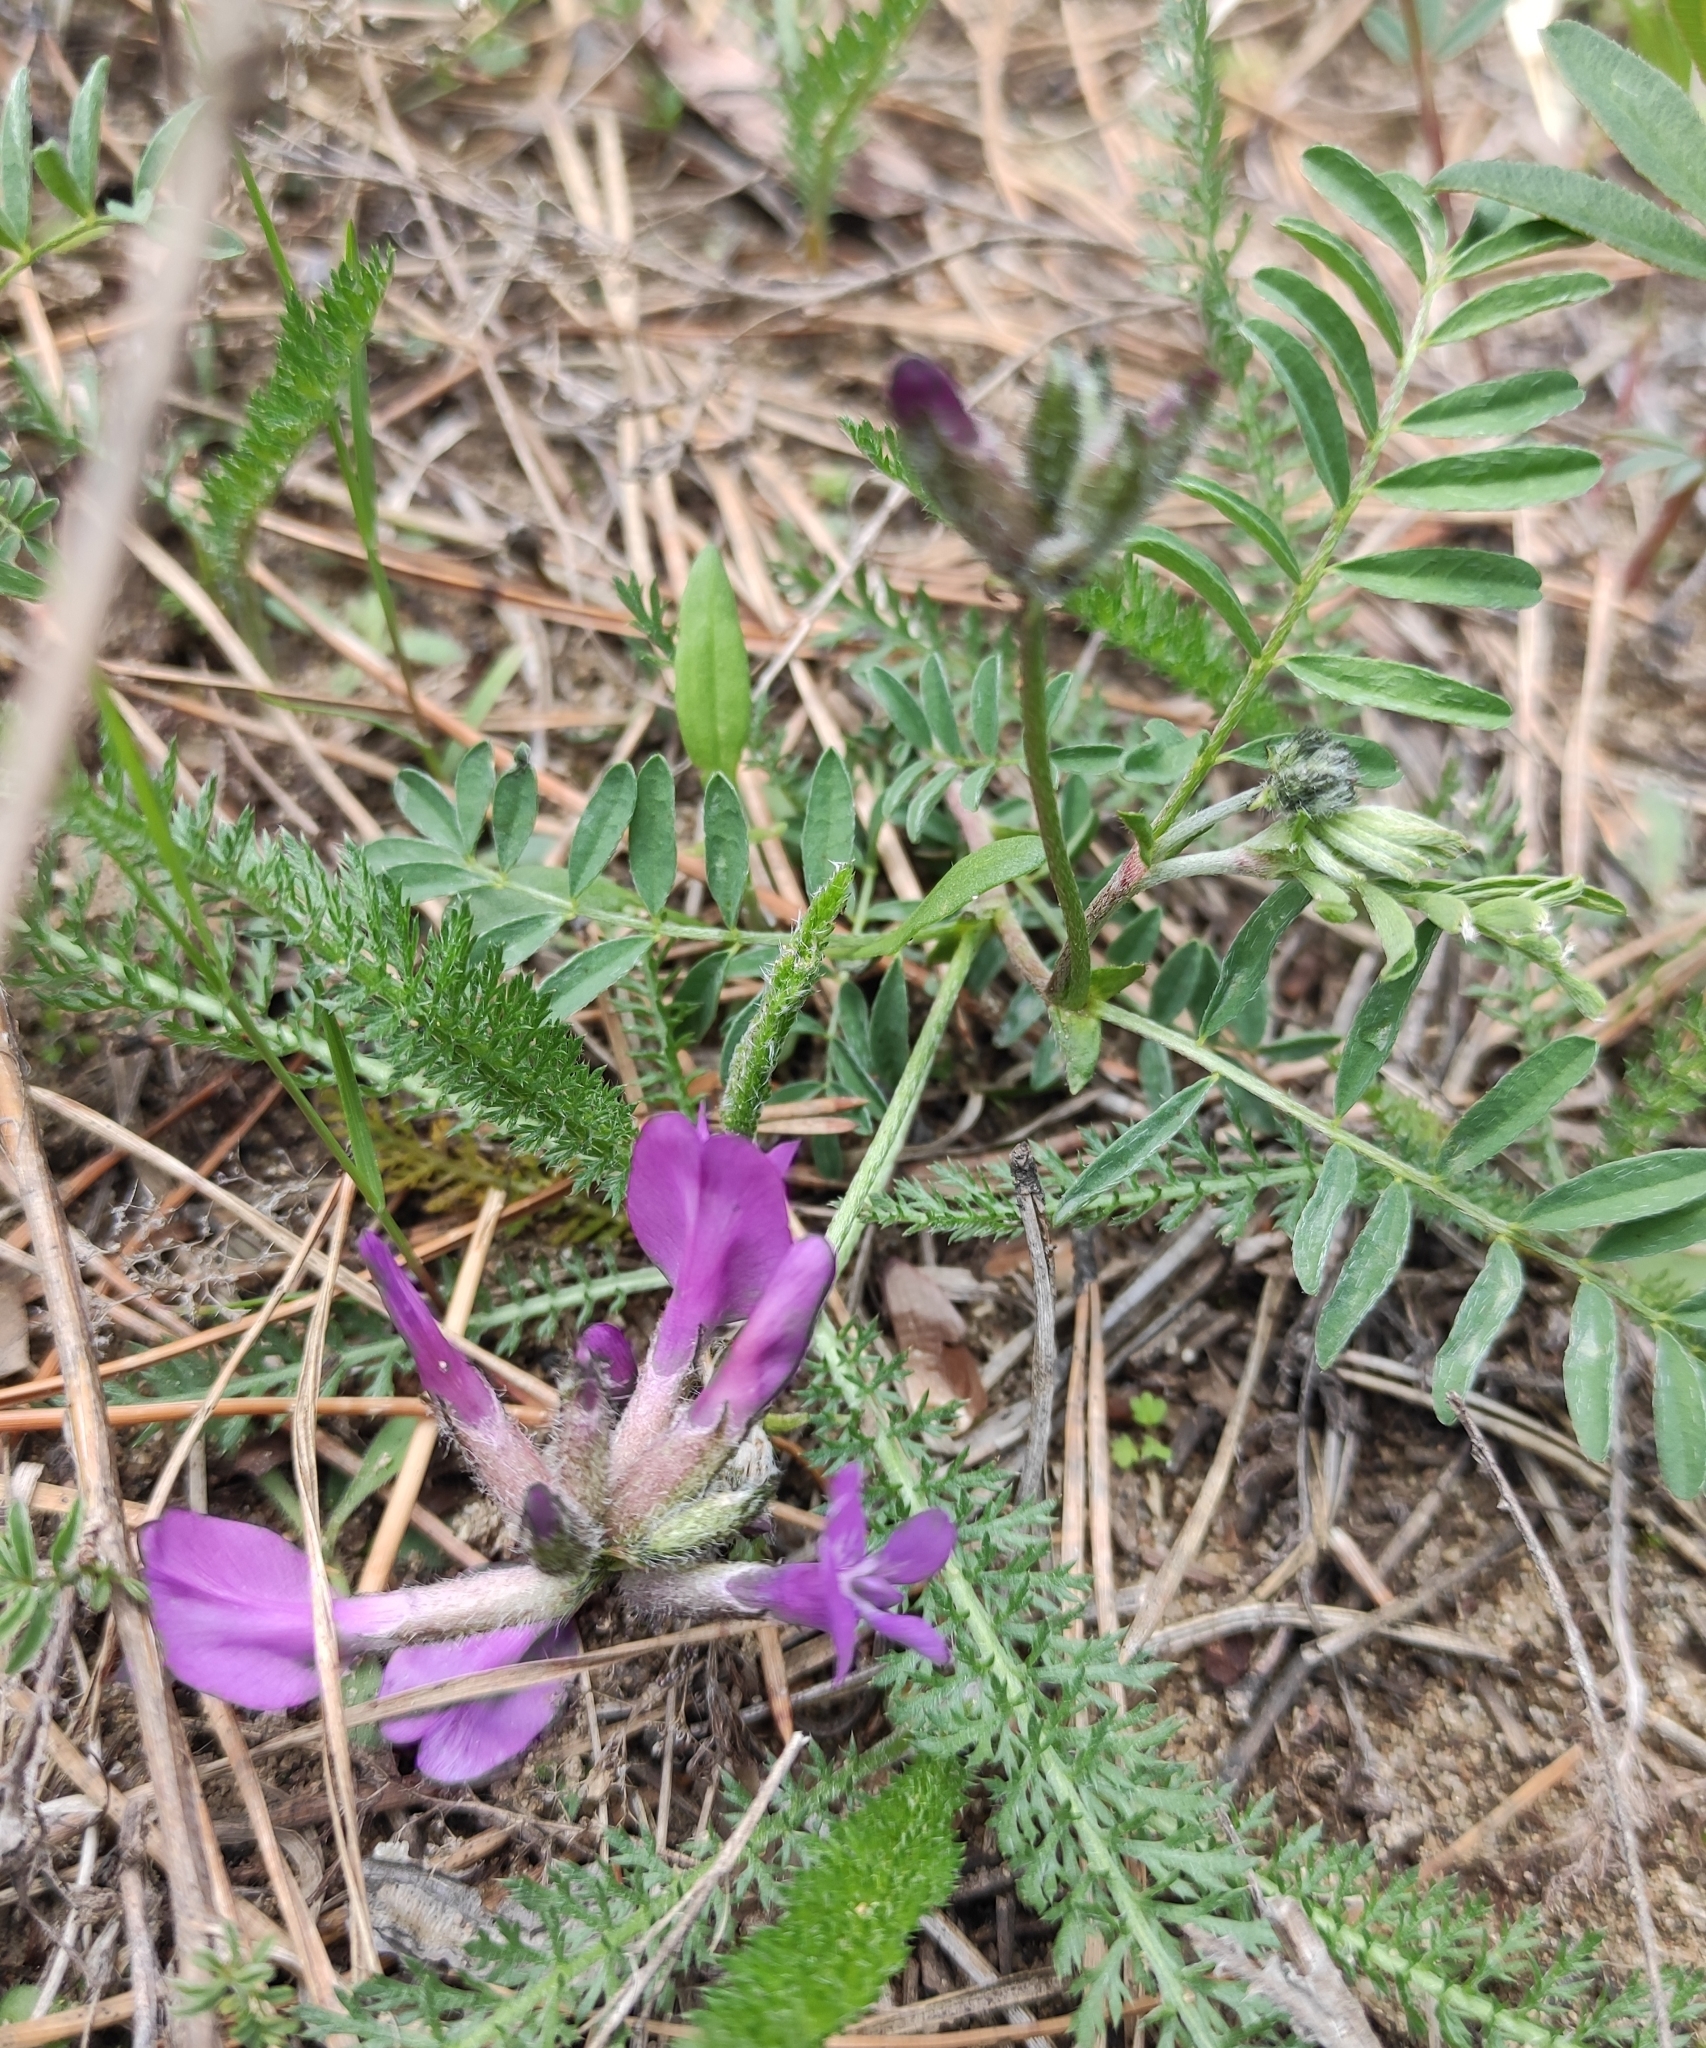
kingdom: Plantae
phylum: Tracheophyta
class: Magnoliopsida
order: Fabales
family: Fabaceae
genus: Astragalus
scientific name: Astragalus syriacus
